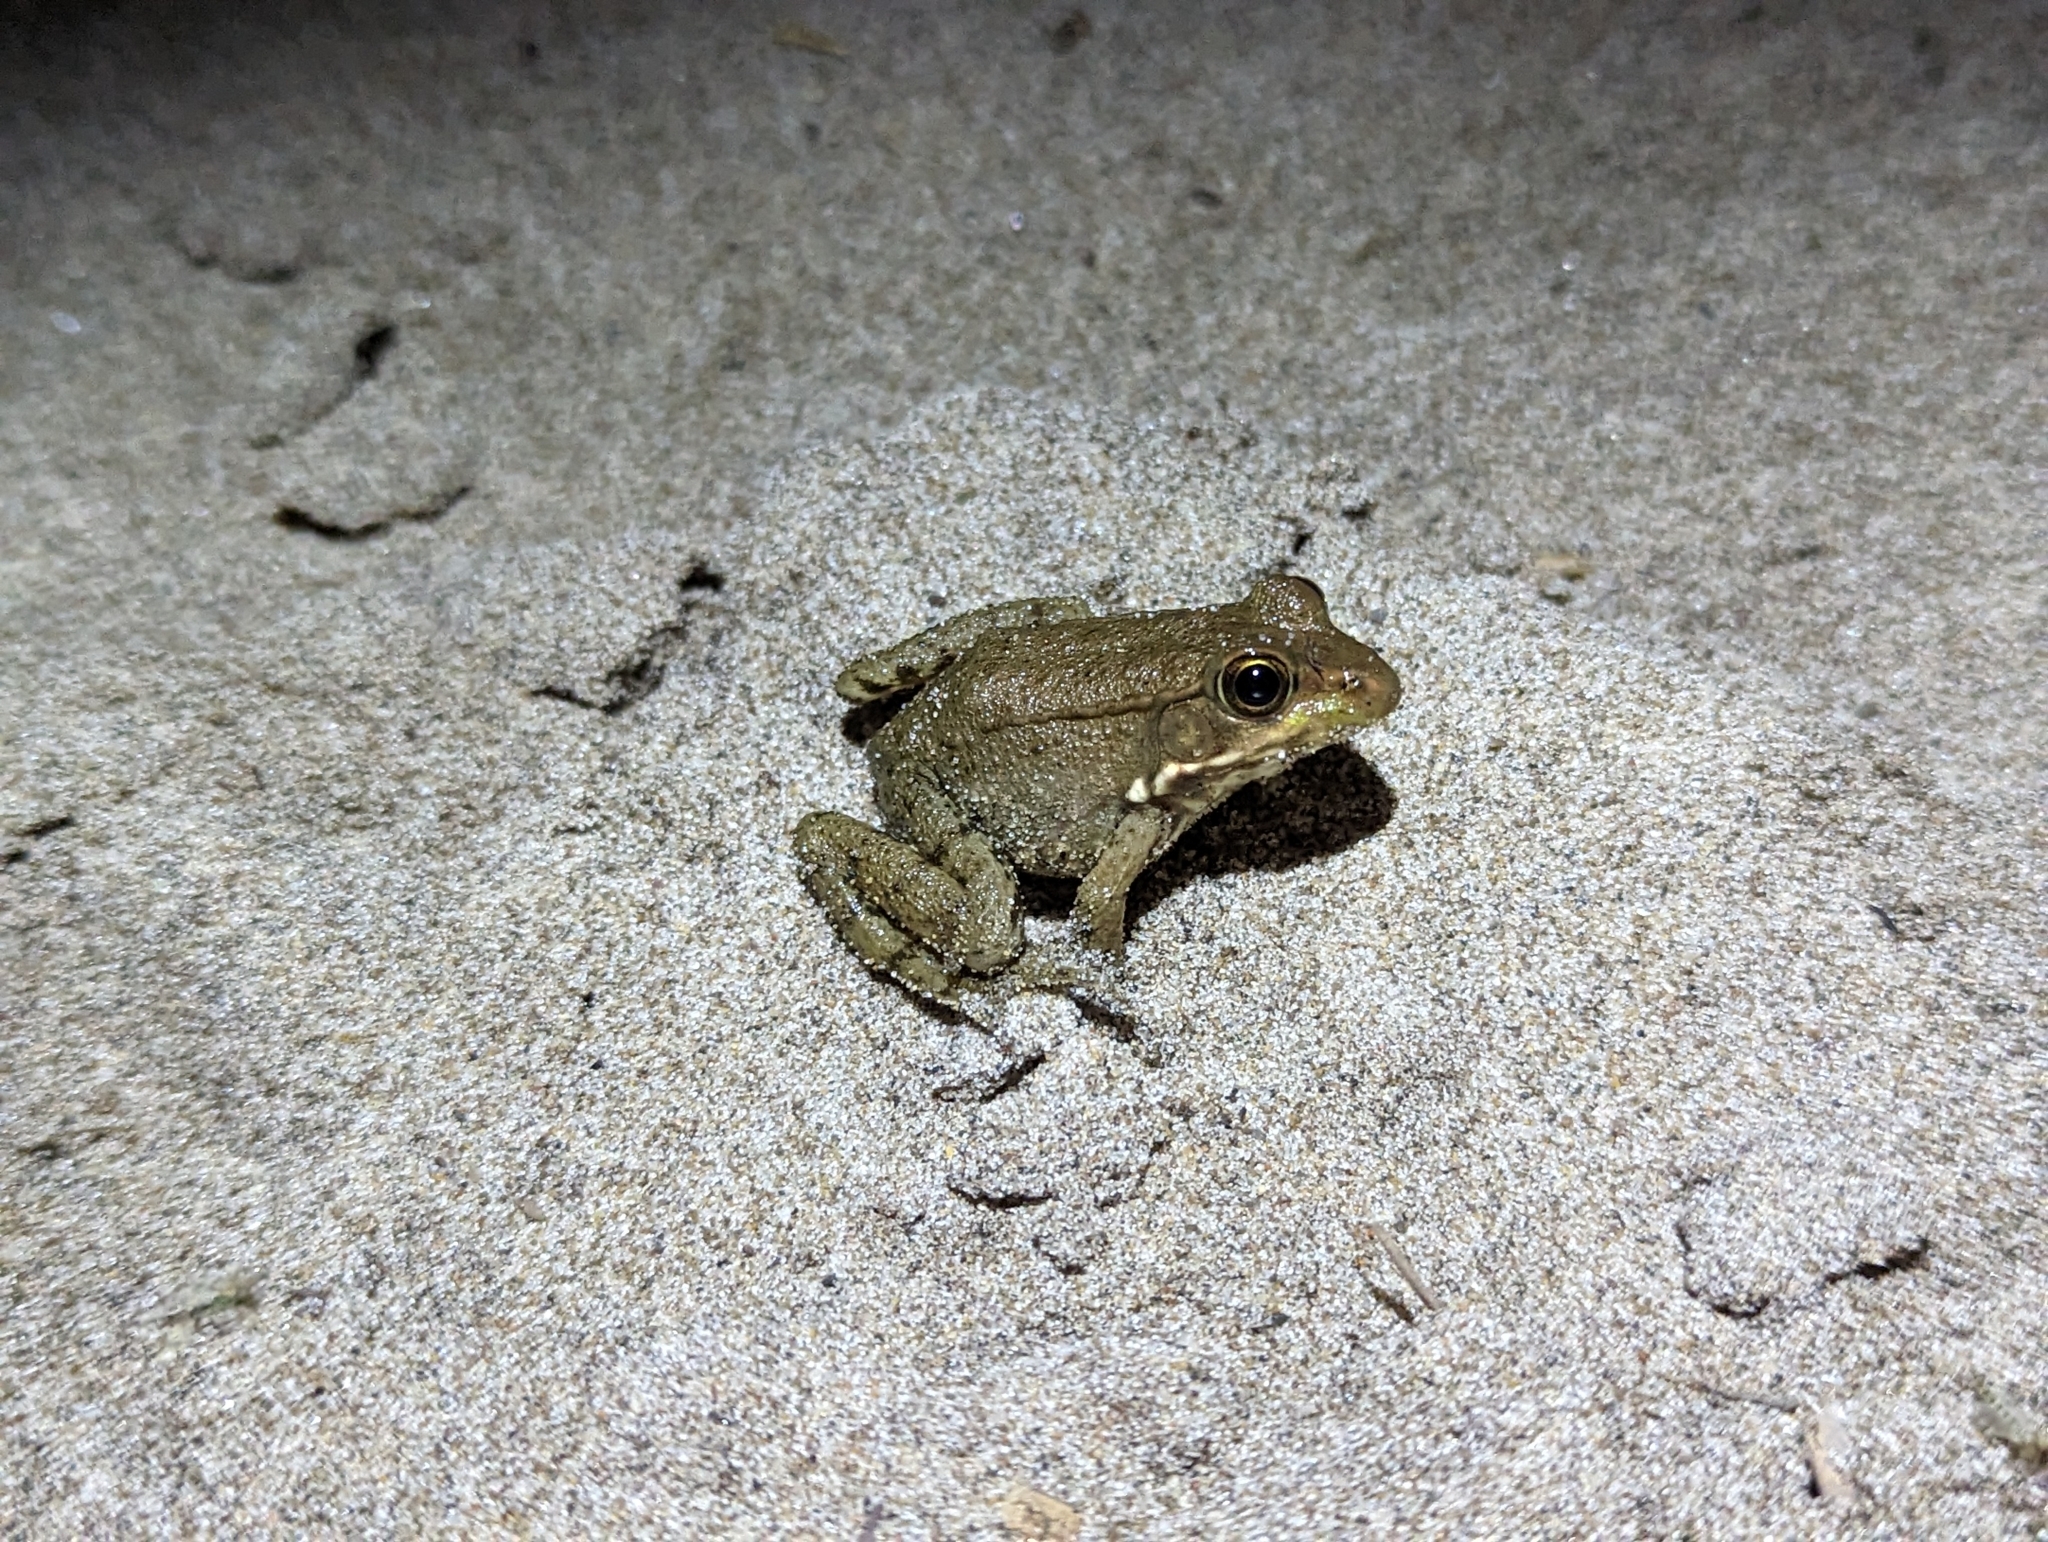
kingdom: Animalia
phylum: Chordata
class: Amphibia
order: Anura
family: Ranidae
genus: Lithobates
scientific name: Lithobates clamitans
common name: Green frog
